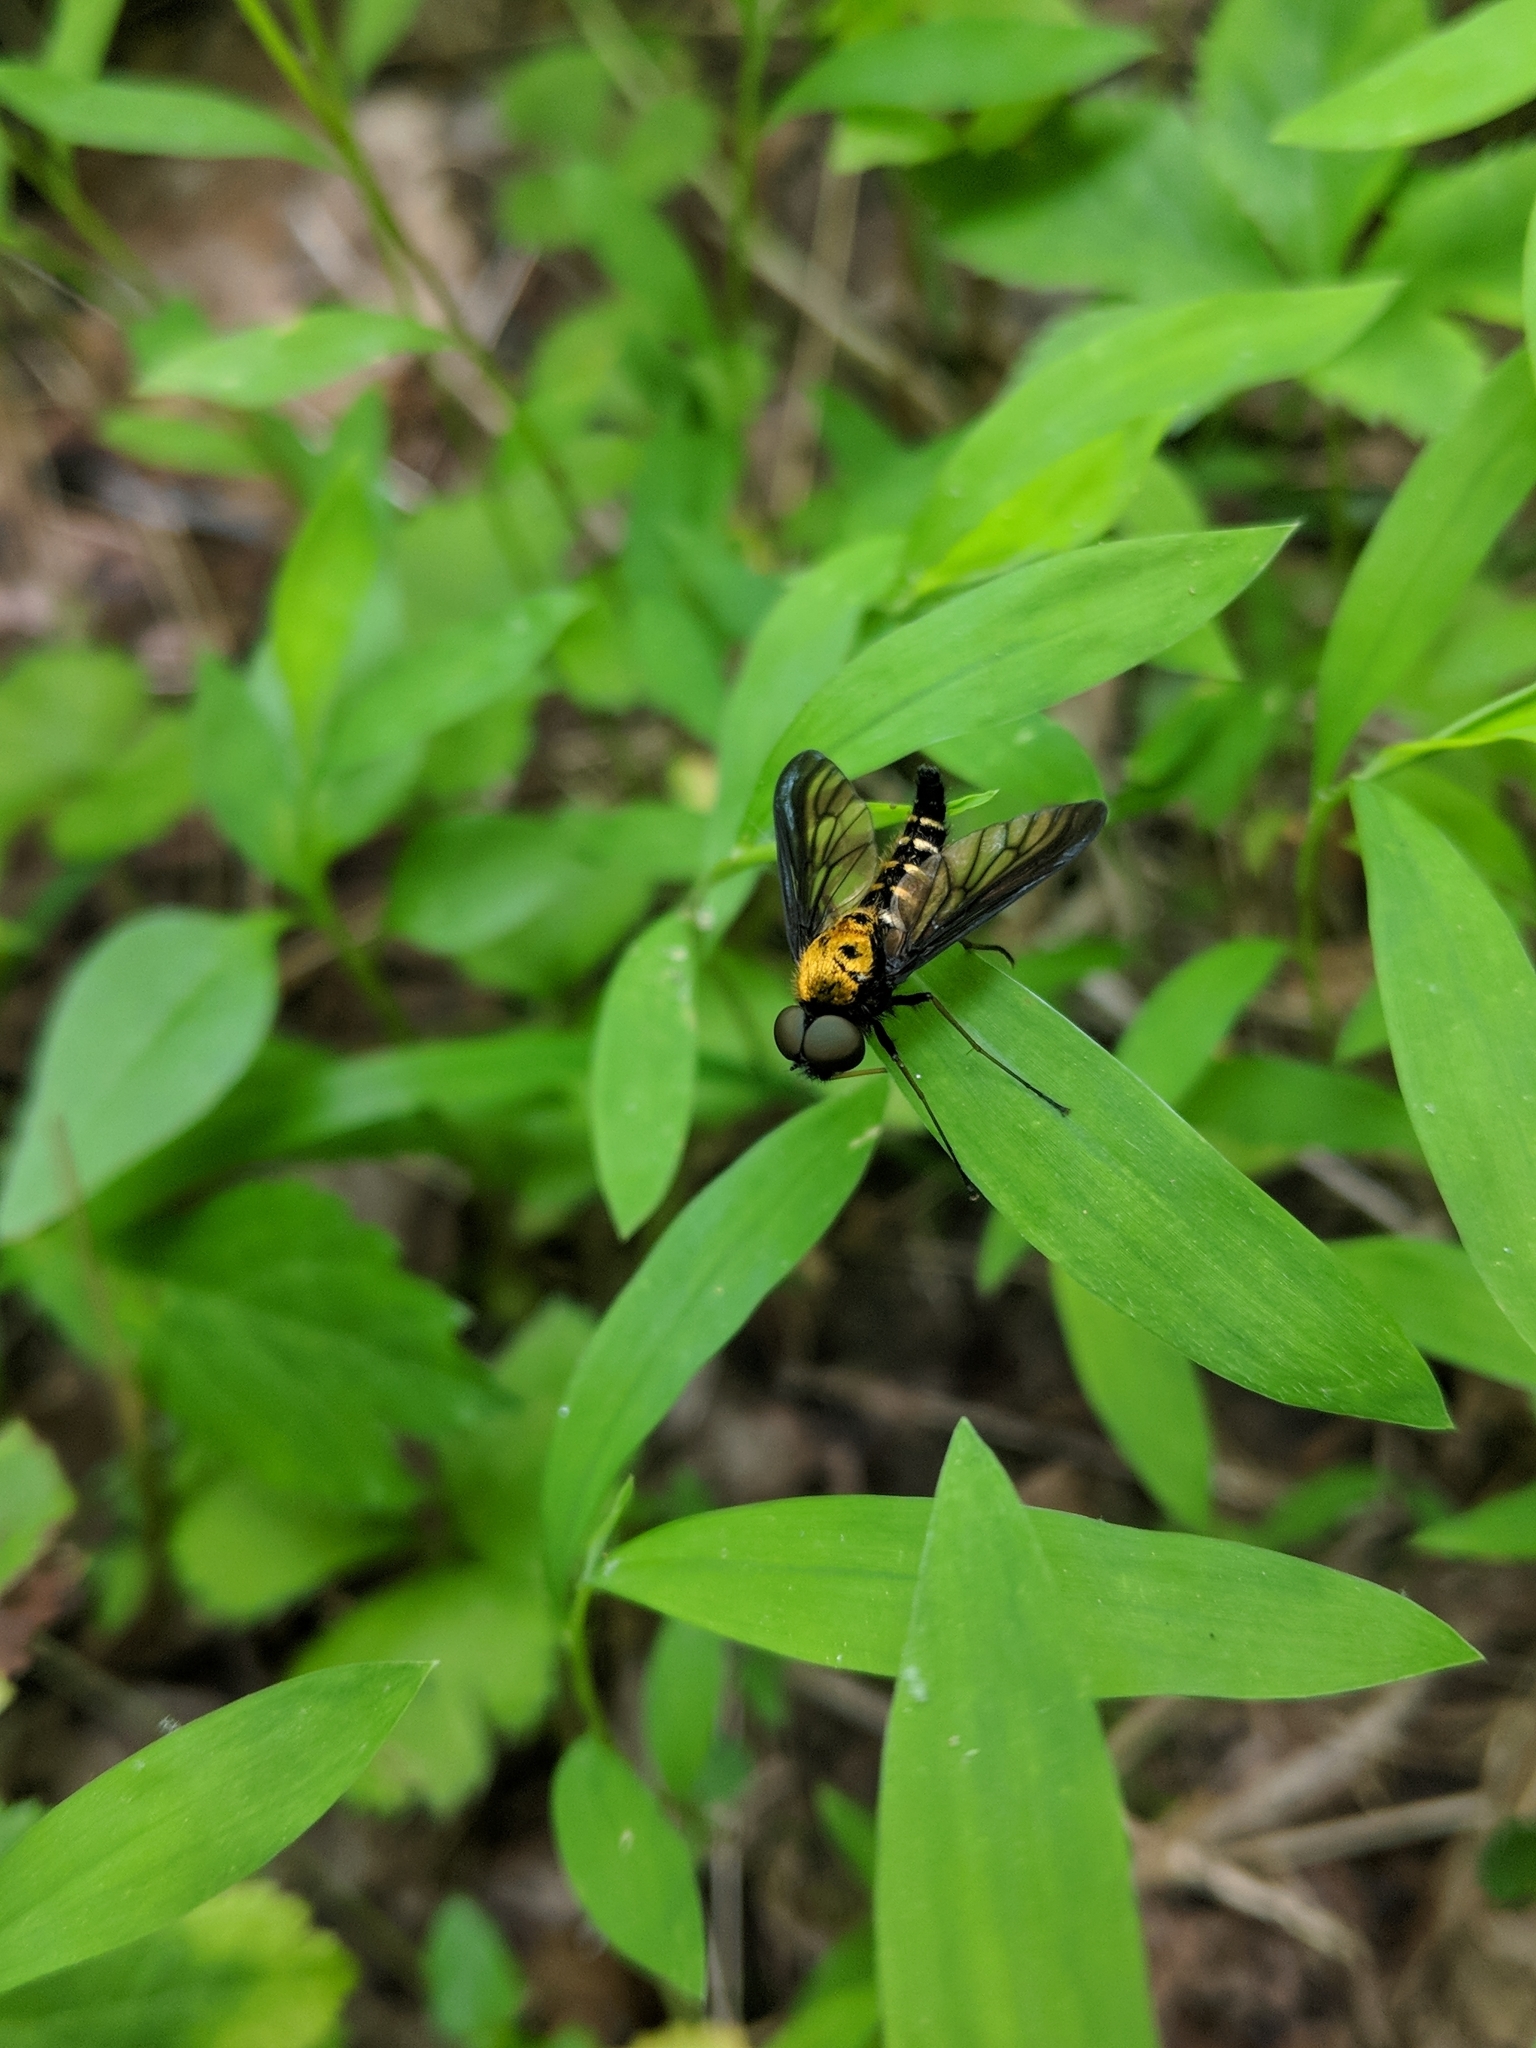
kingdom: Animalia
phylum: Arthropoda
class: Insecta
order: Diptera
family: Rhagionidae
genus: Chrysopilus
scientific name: Chrysopilus thoracicus
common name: Golden-backed snipe fly
